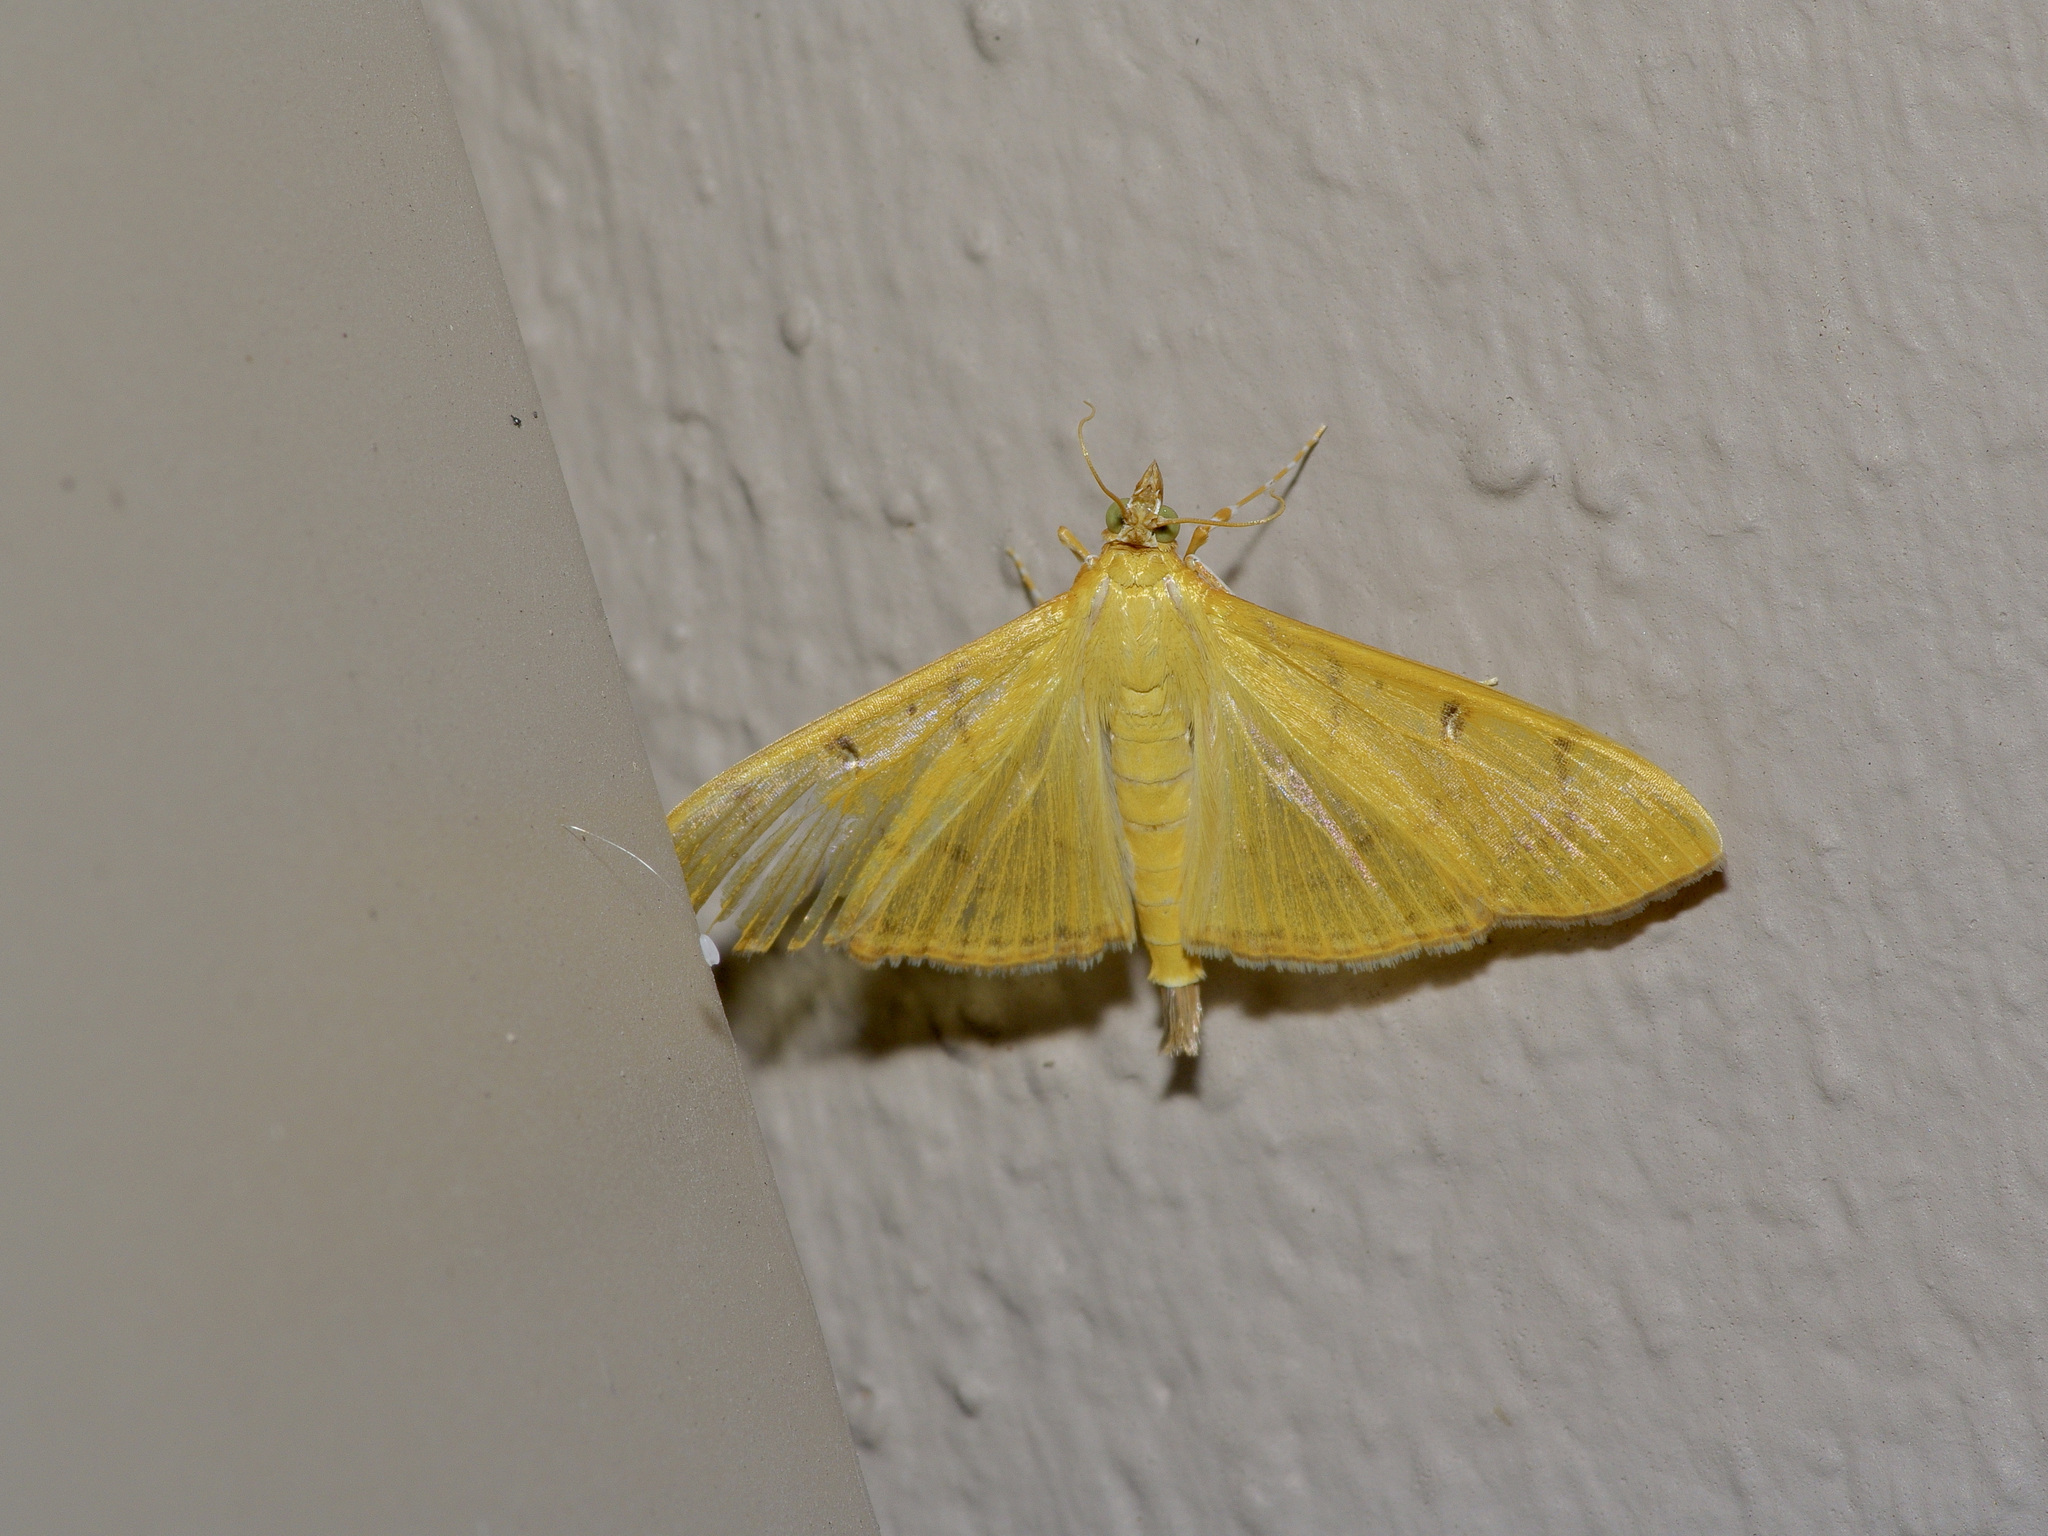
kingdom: Animalia
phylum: Arthropoda
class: Insecta
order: Lepidoptera
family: Crambidae
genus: Condylorrhiza
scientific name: Condylorrhiza vestigialis
